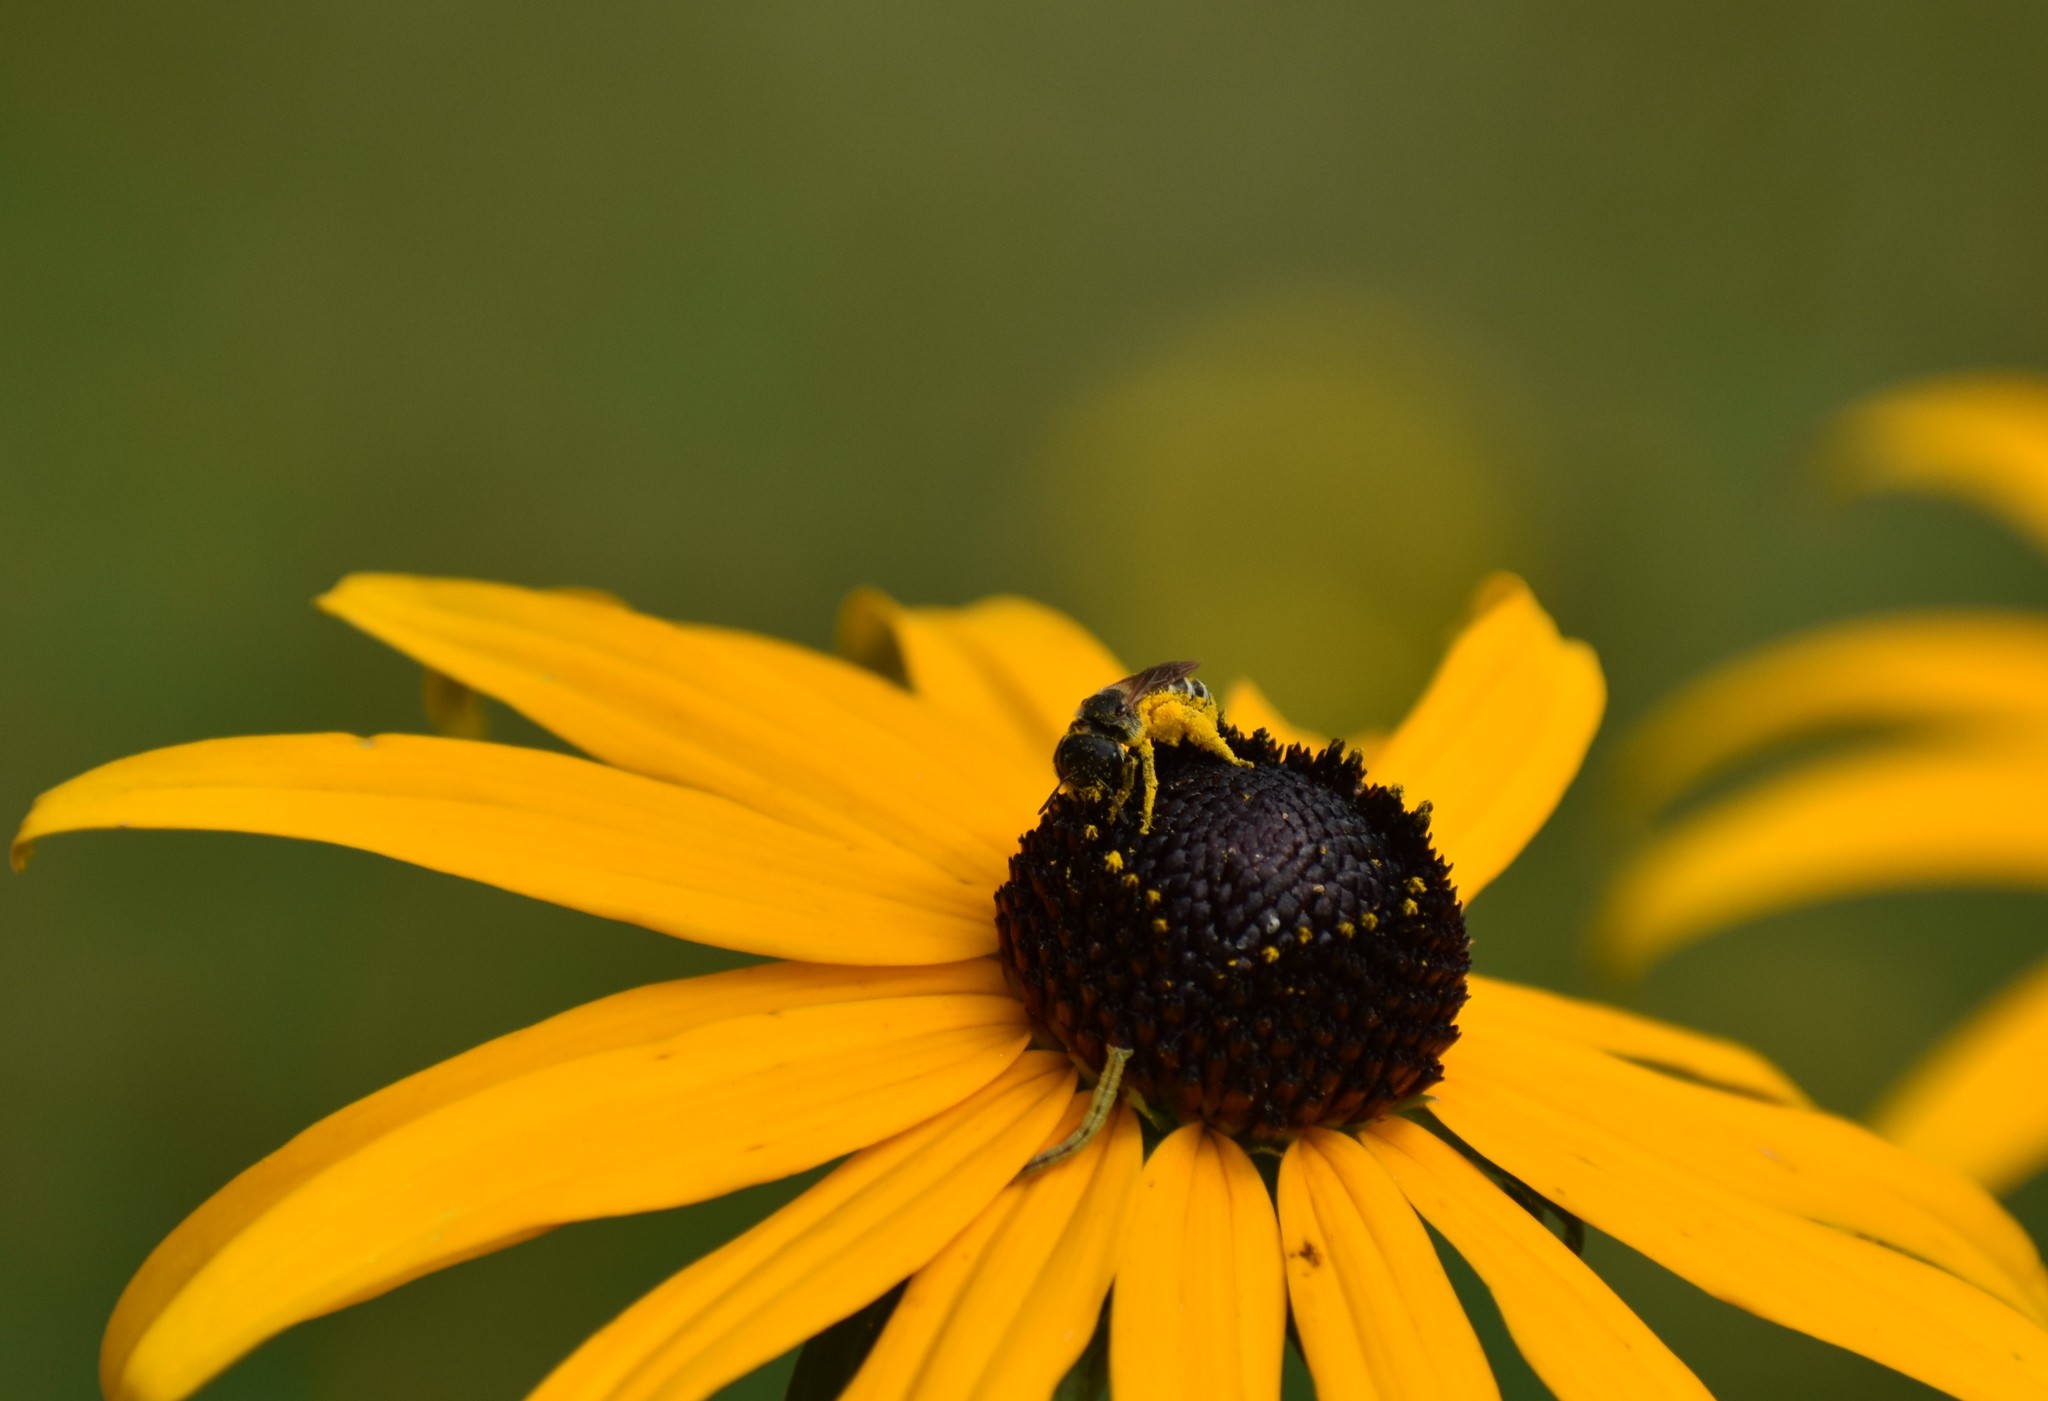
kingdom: Animalia
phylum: Arthropoda
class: Insecta
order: Hymenoptera
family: Halictidae
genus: Halictus
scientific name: Halictus ligatus
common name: Ligated furrow bee
